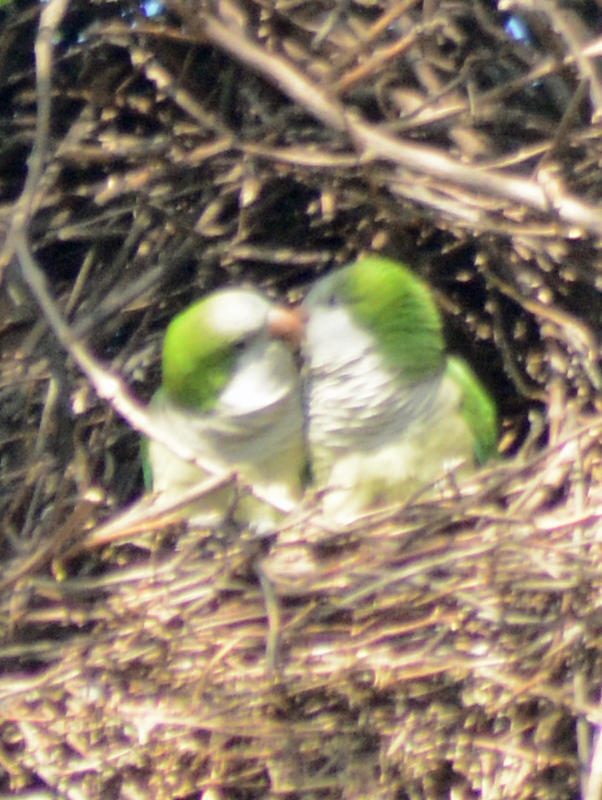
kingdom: Animalia
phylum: Chordata
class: Aves
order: Psittaciformes
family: Psittacidae
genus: Myiopsitta
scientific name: Myiopsitta monachus
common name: Monk parakeet
